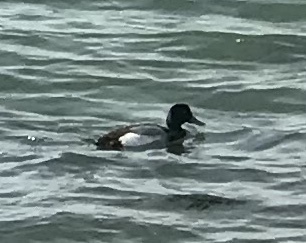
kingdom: Animalia
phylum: Chordata
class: Aves
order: Anseriformes
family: Anatidae
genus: Aythya
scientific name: Aythya
